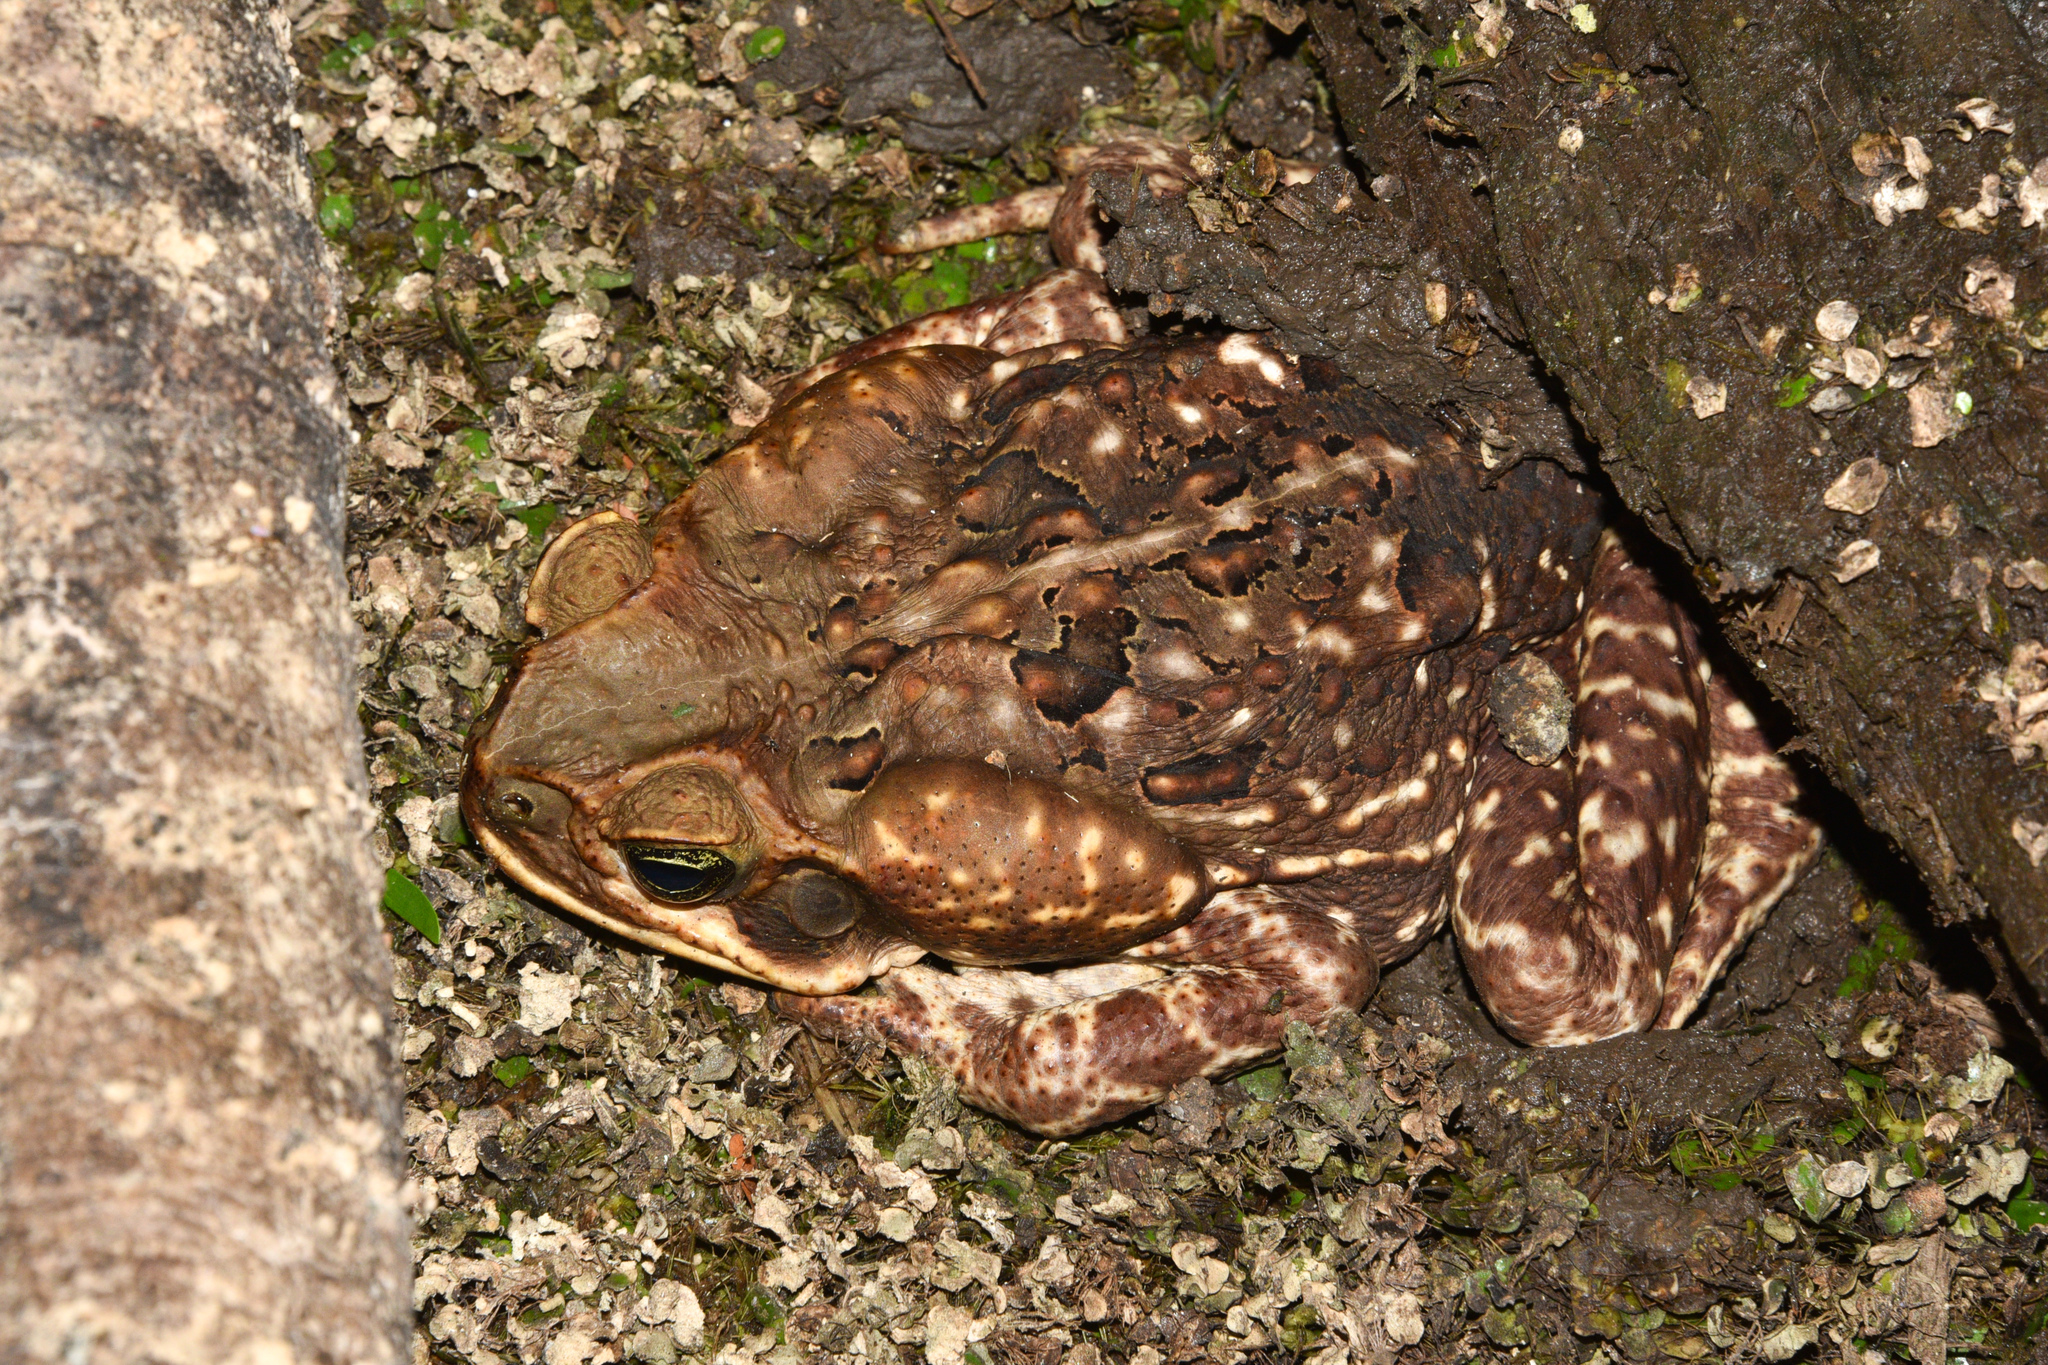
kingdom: Animalia
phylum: Chordata
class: Amphibia
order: Anura
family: Bufonidae
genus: Rhinella
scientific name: Rhinella horribilis
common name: Mesoamerican cane toad
